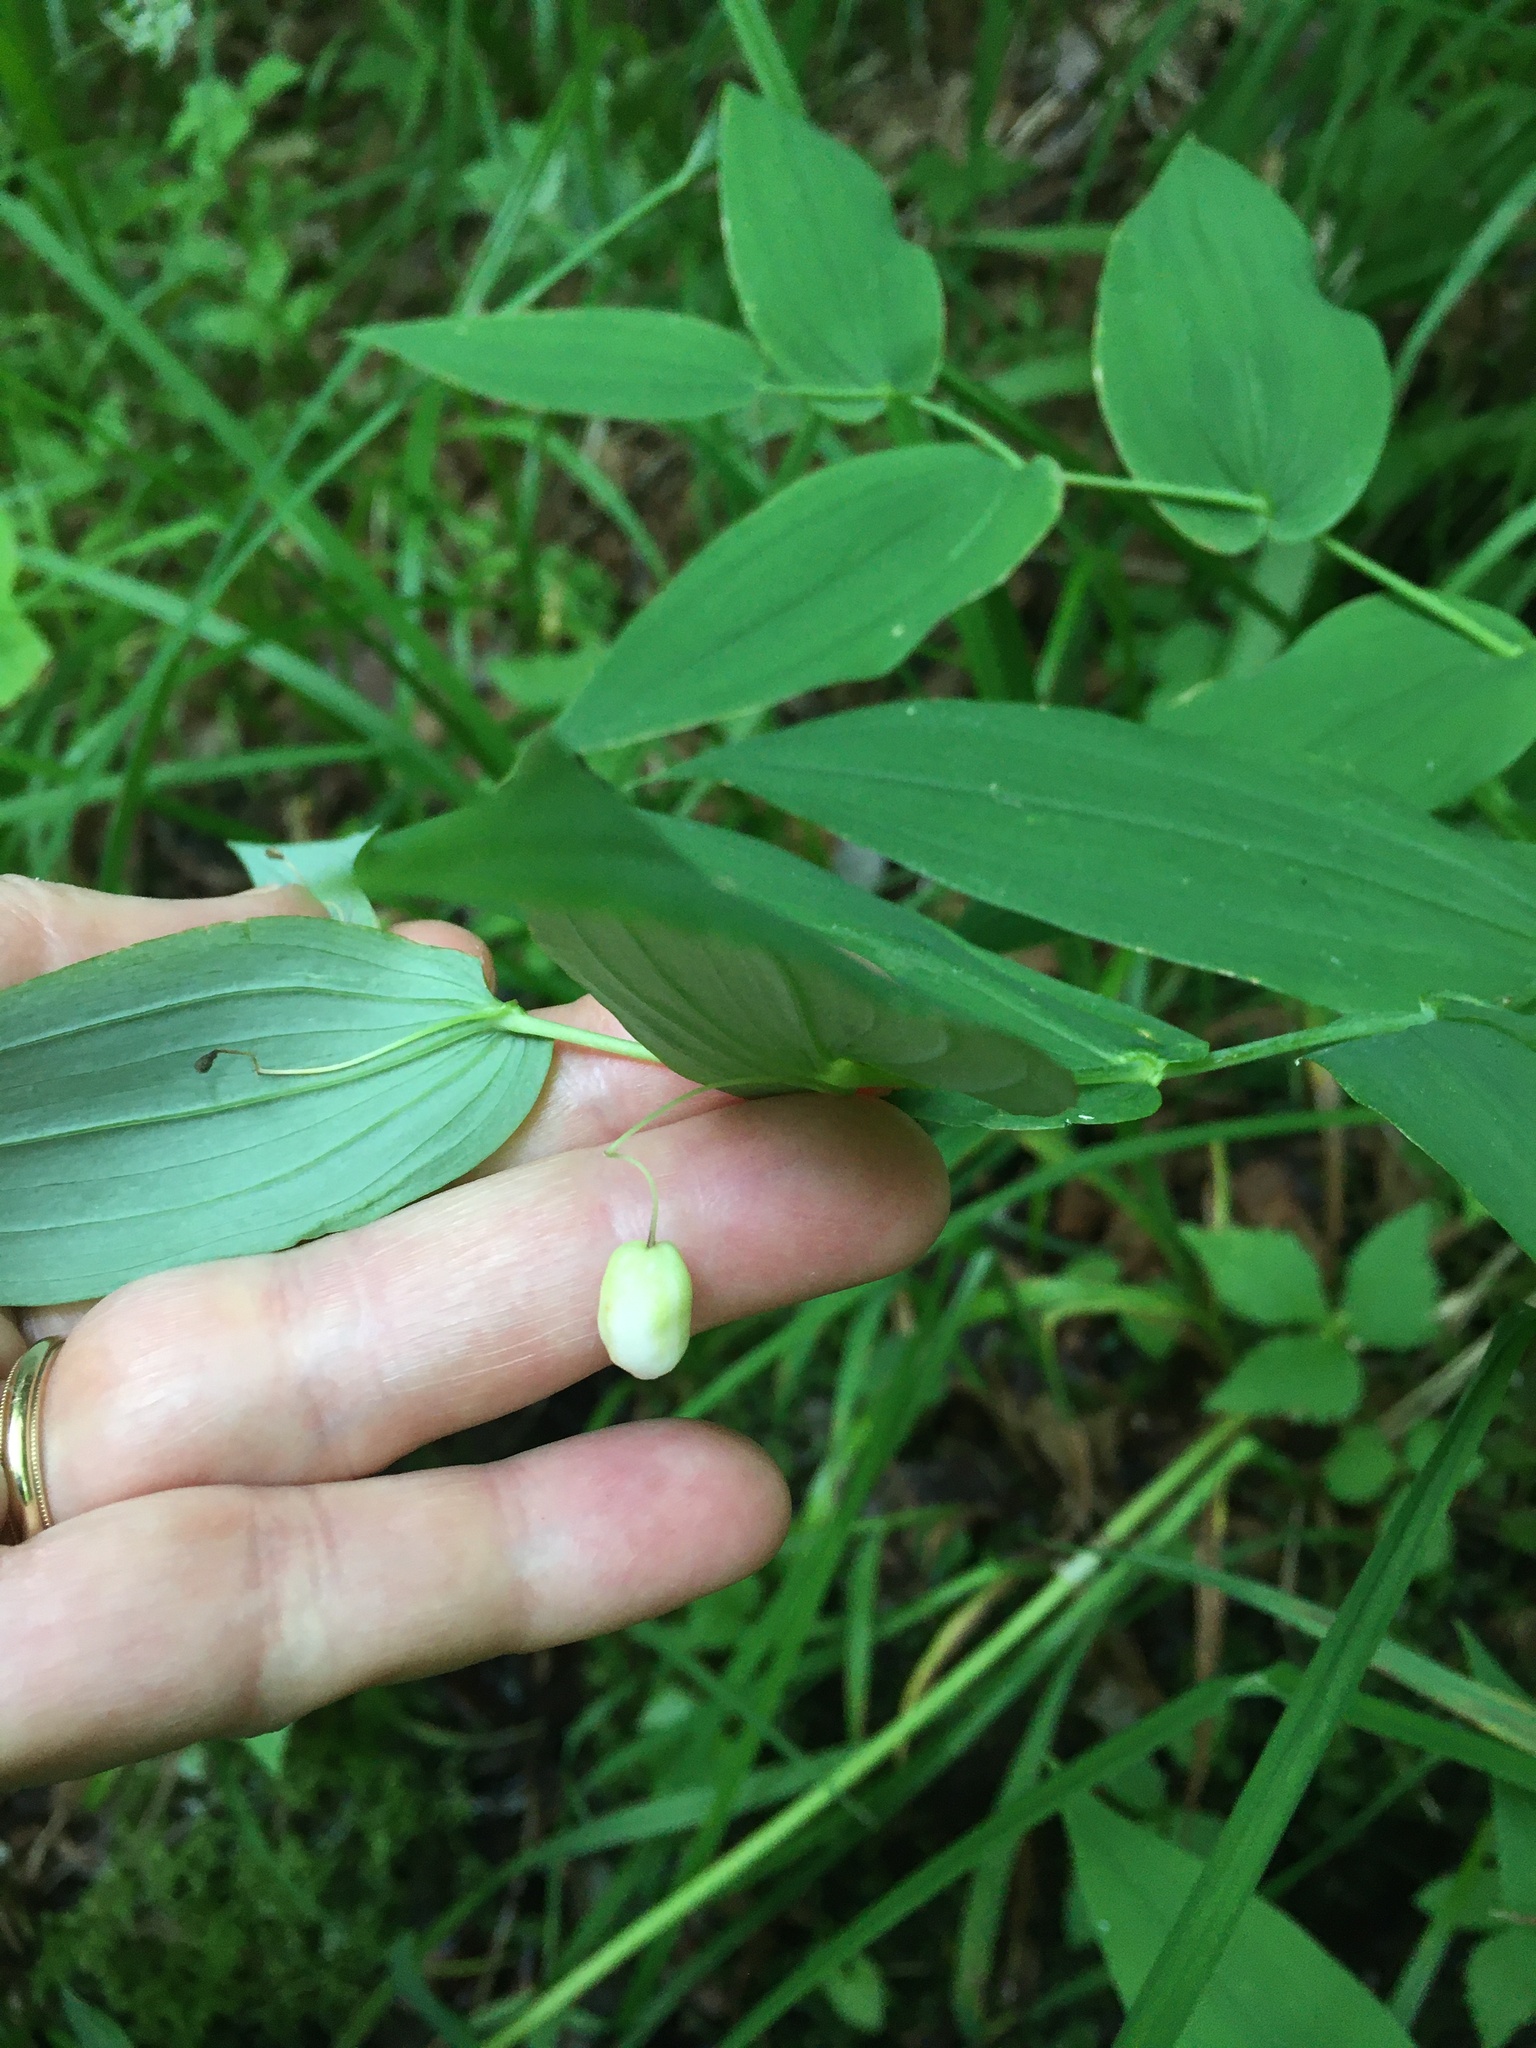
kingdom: Plantae
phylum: Tracheophyta
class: Liliopsida
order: Liliales
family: Liliaceae
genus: Streptopus
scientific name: Streptopus amplexifolius
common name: Clasp twisted stalk
